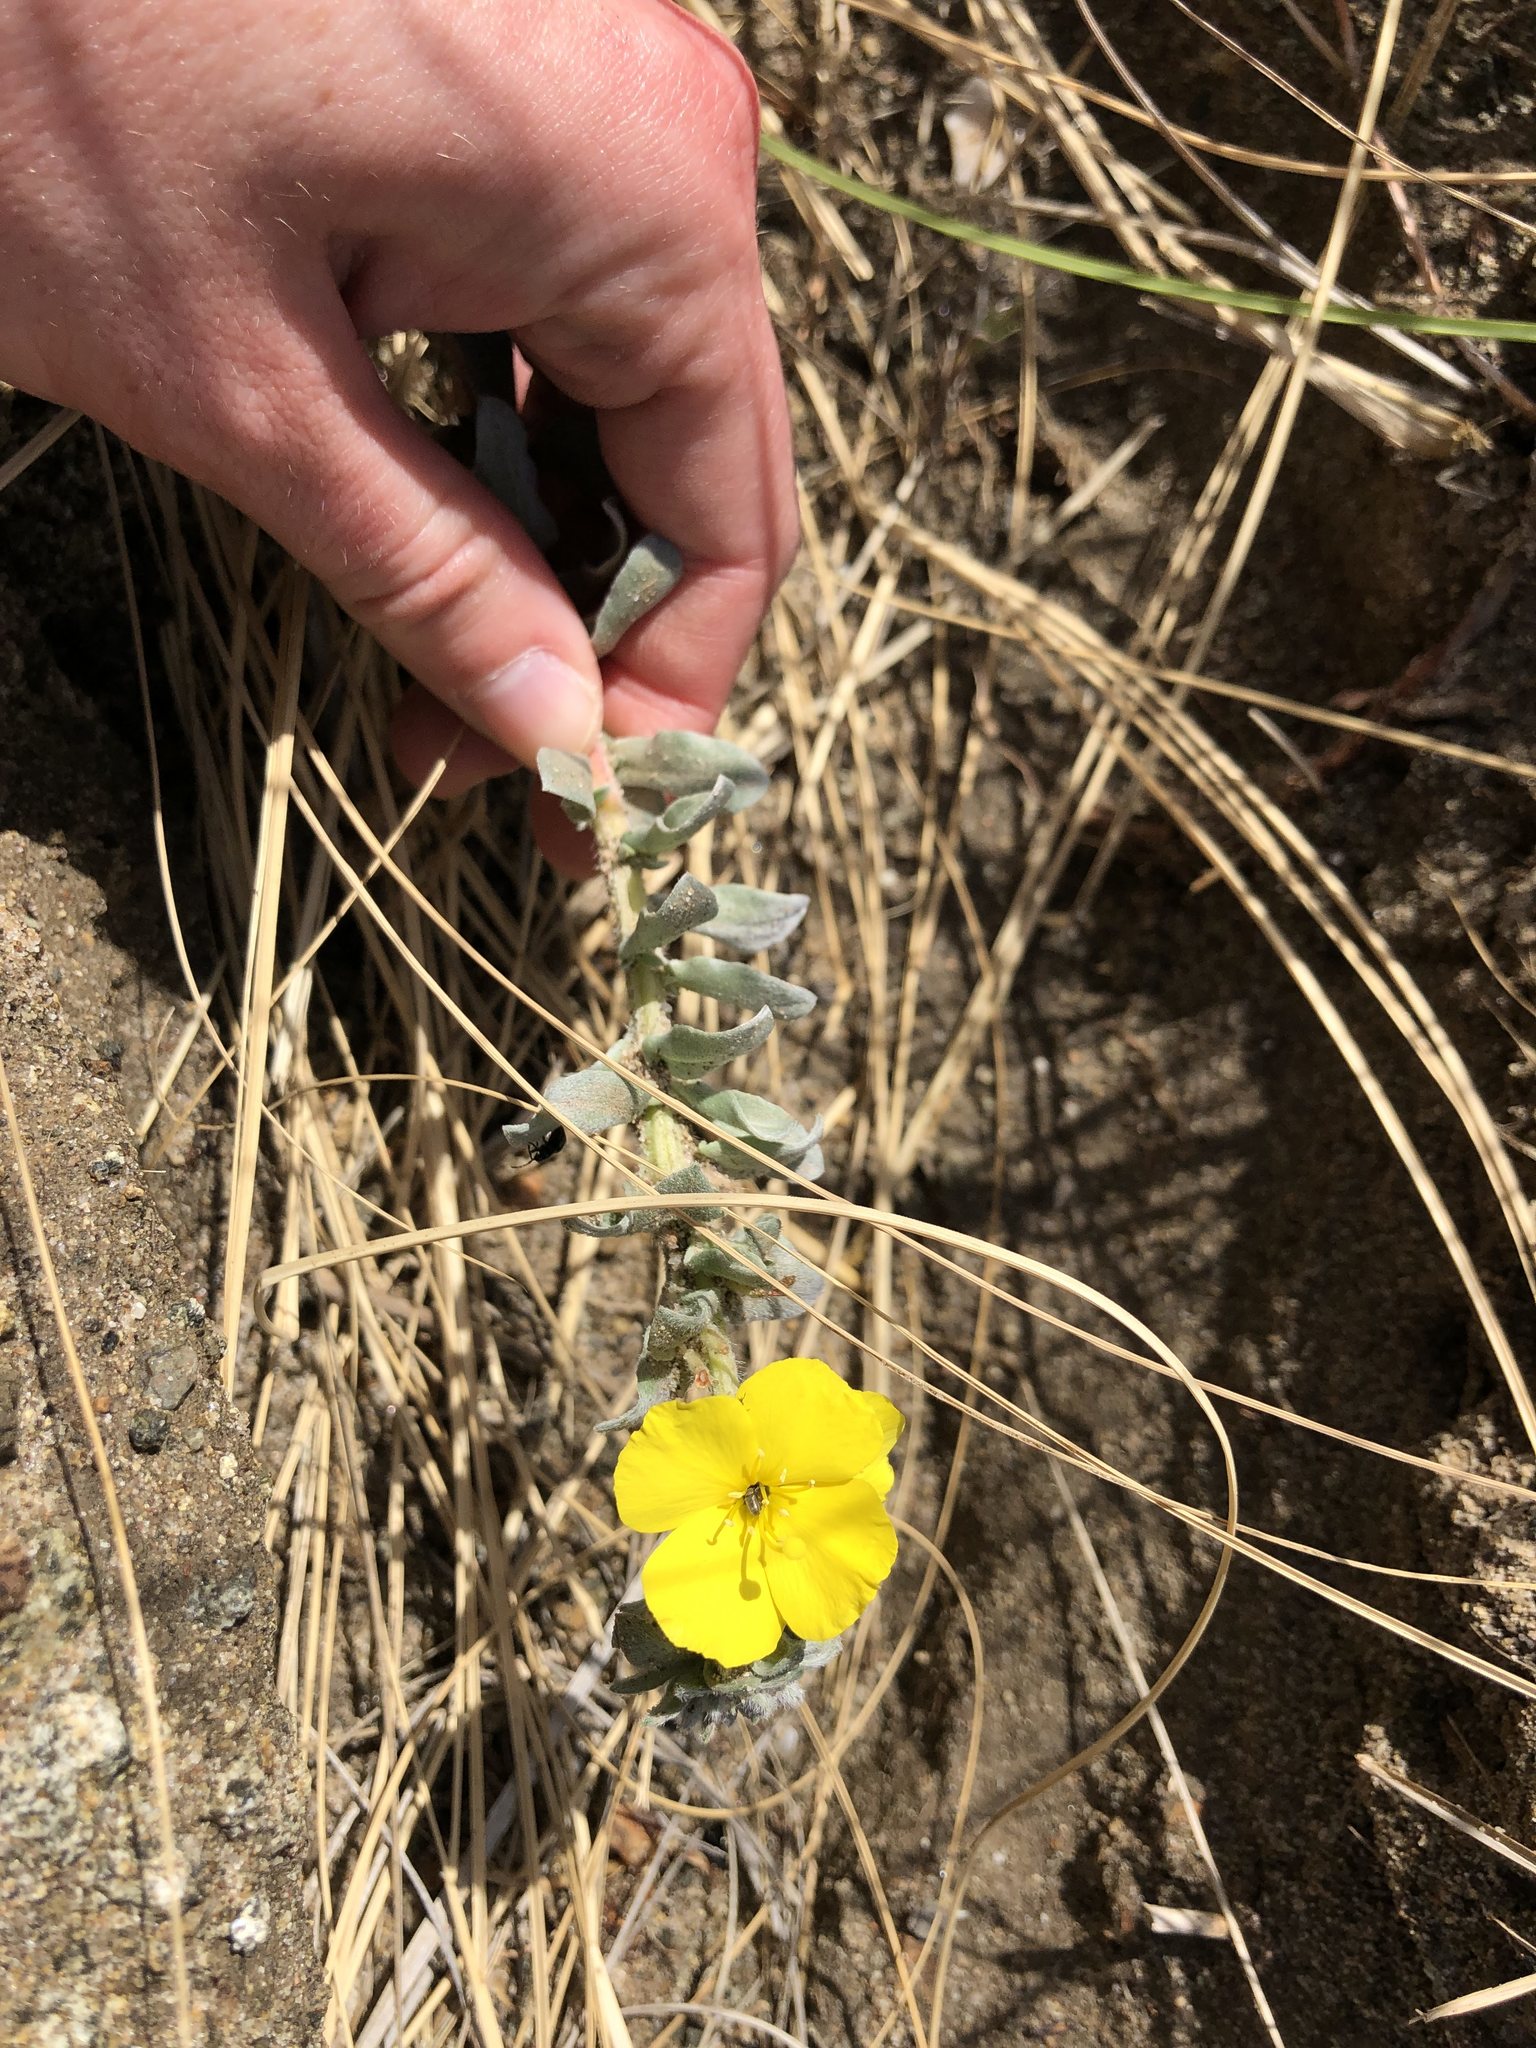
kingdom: Plantae
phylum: Tracheophyta
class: Magnoliopsida
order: Myrtales
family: Onagraceae
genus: Camissoniopsis
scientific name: Camissoniopsis cheiranthifolia
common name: Beach suncup
